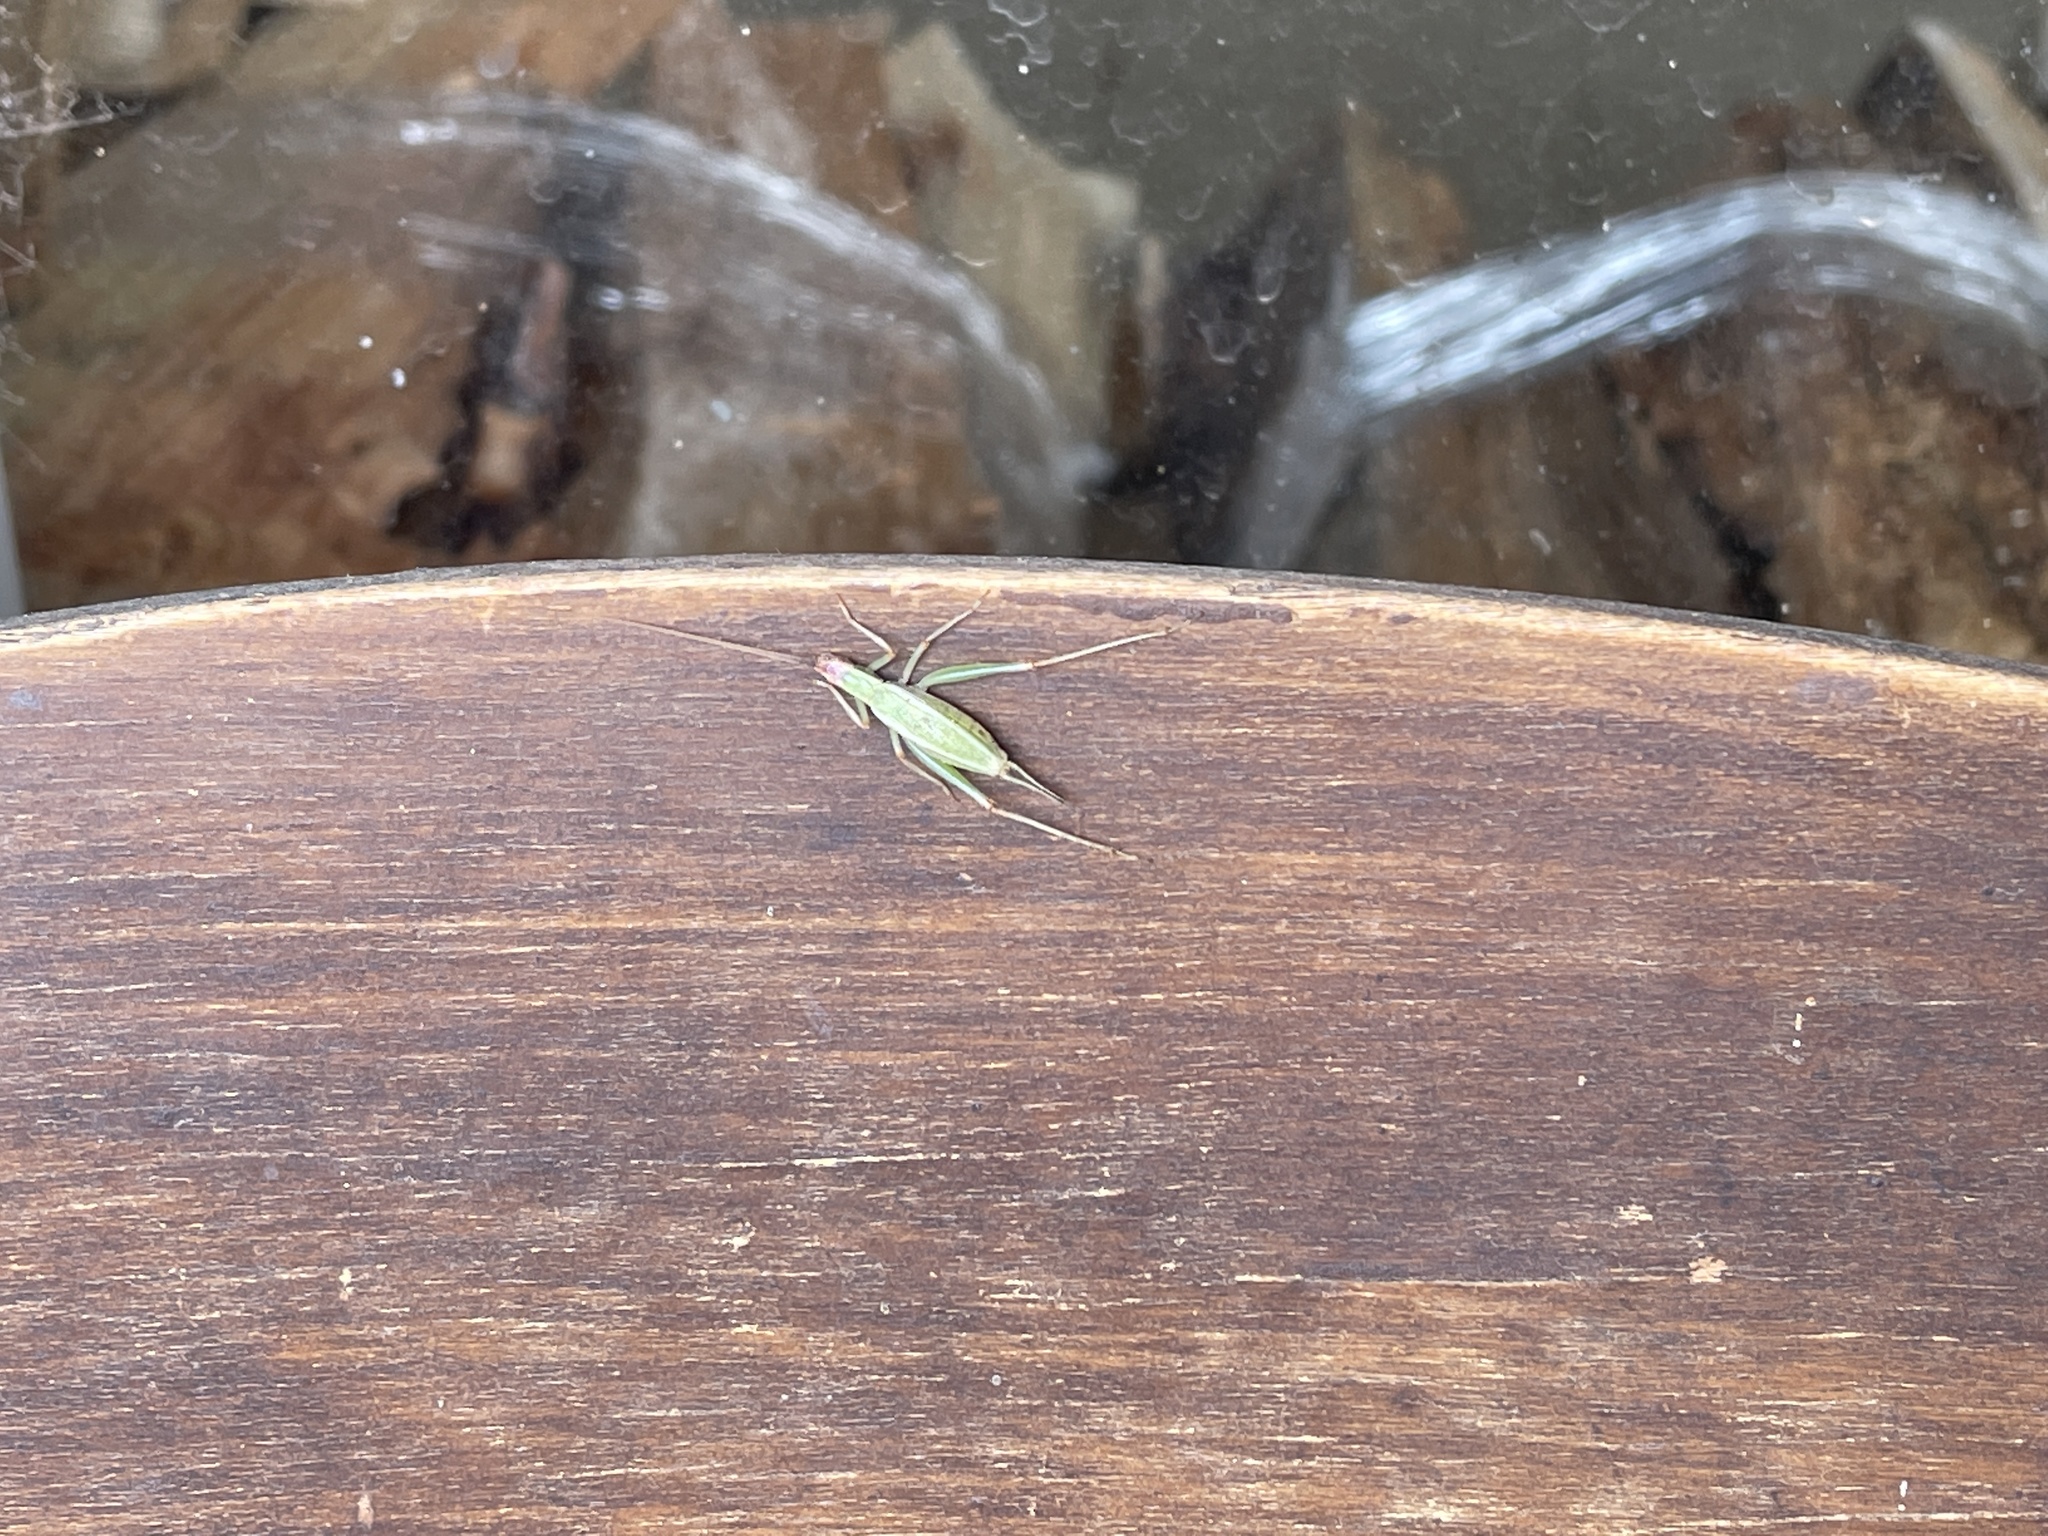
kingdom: Animalia
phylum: Arthropoda
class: Insecta
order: Orthoptera
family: Gryllidae
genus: Oecanthus
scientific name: Oecanthus californicus
